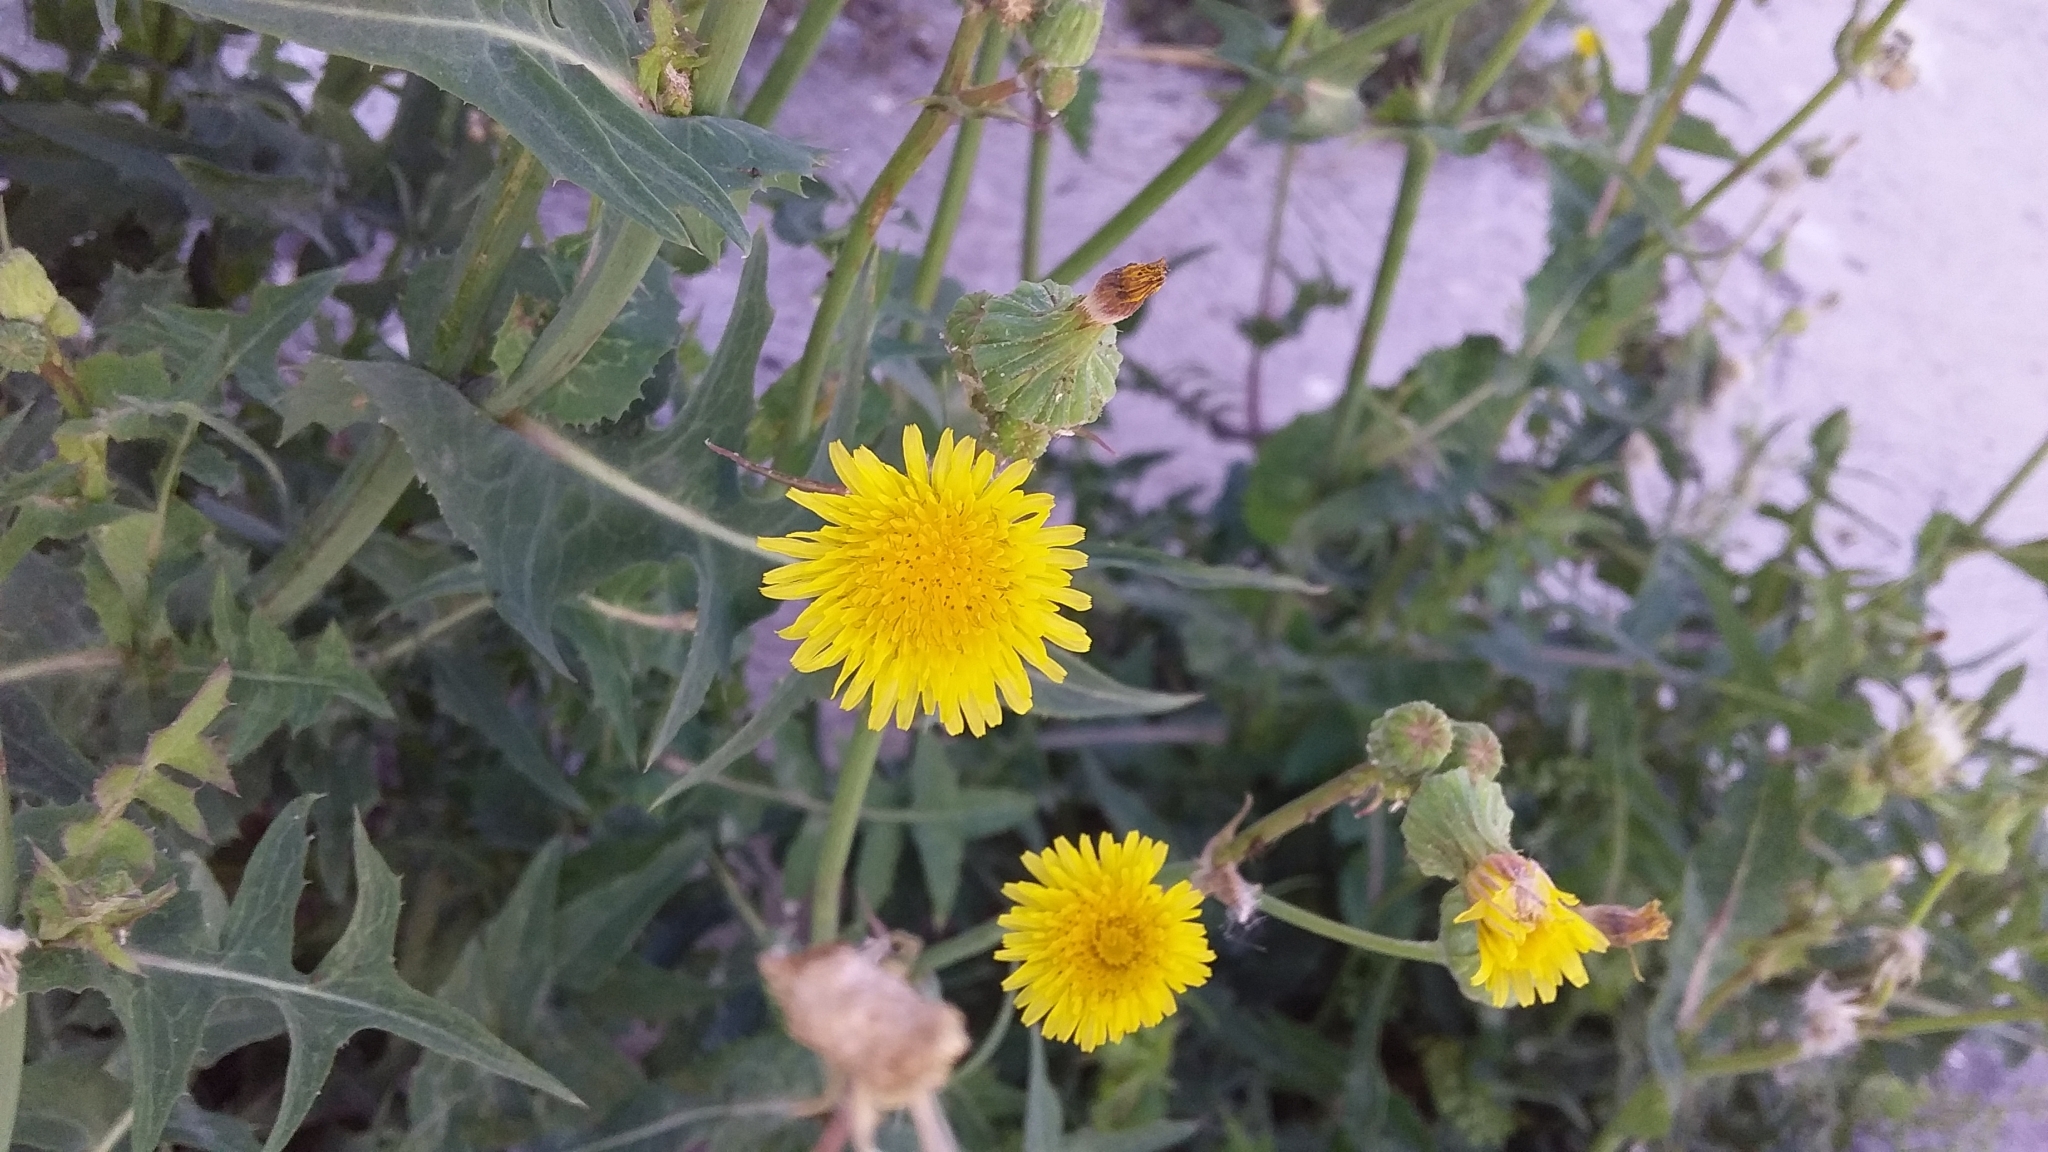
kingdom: Plantae
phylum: Tracheophyta
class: Magnoliopsida
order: Asterales
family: Asteraceae
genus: Sonchus
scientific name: Sonchus oleraceus
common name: Common sowthistle
